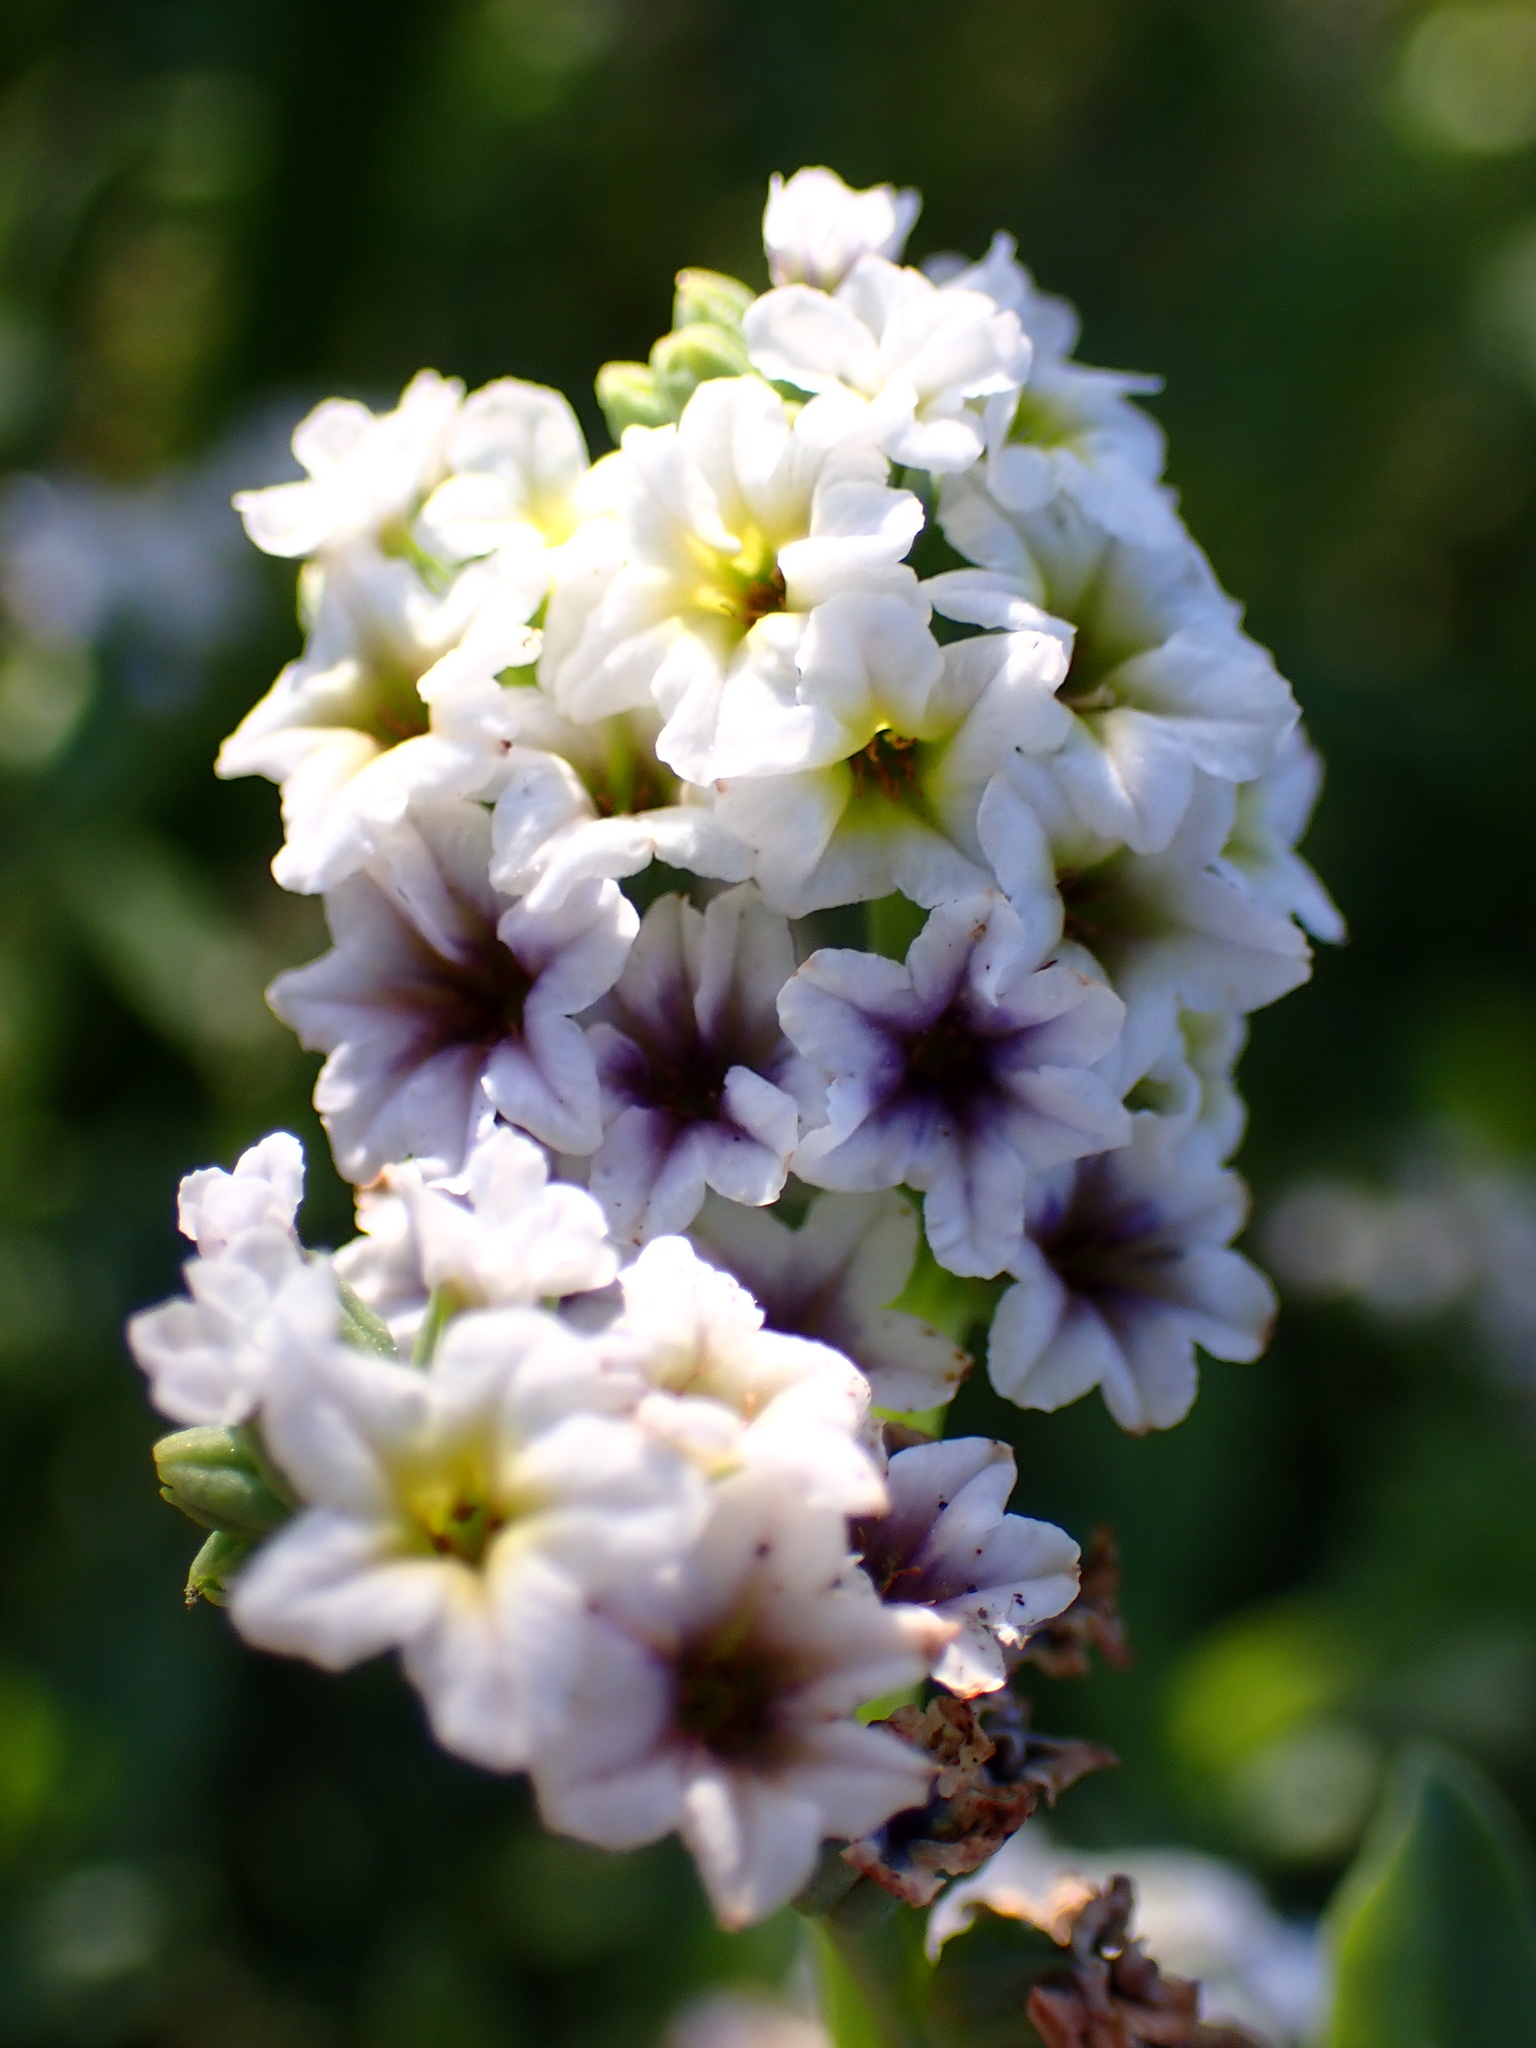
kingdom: Plantae
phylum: Tracheophyta
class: Magnoliopsida
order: Boraginales
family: Heliotropiaceae
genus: Heliotropium
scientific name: Heliotropium curassavicum
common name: Seaside heliotrope
